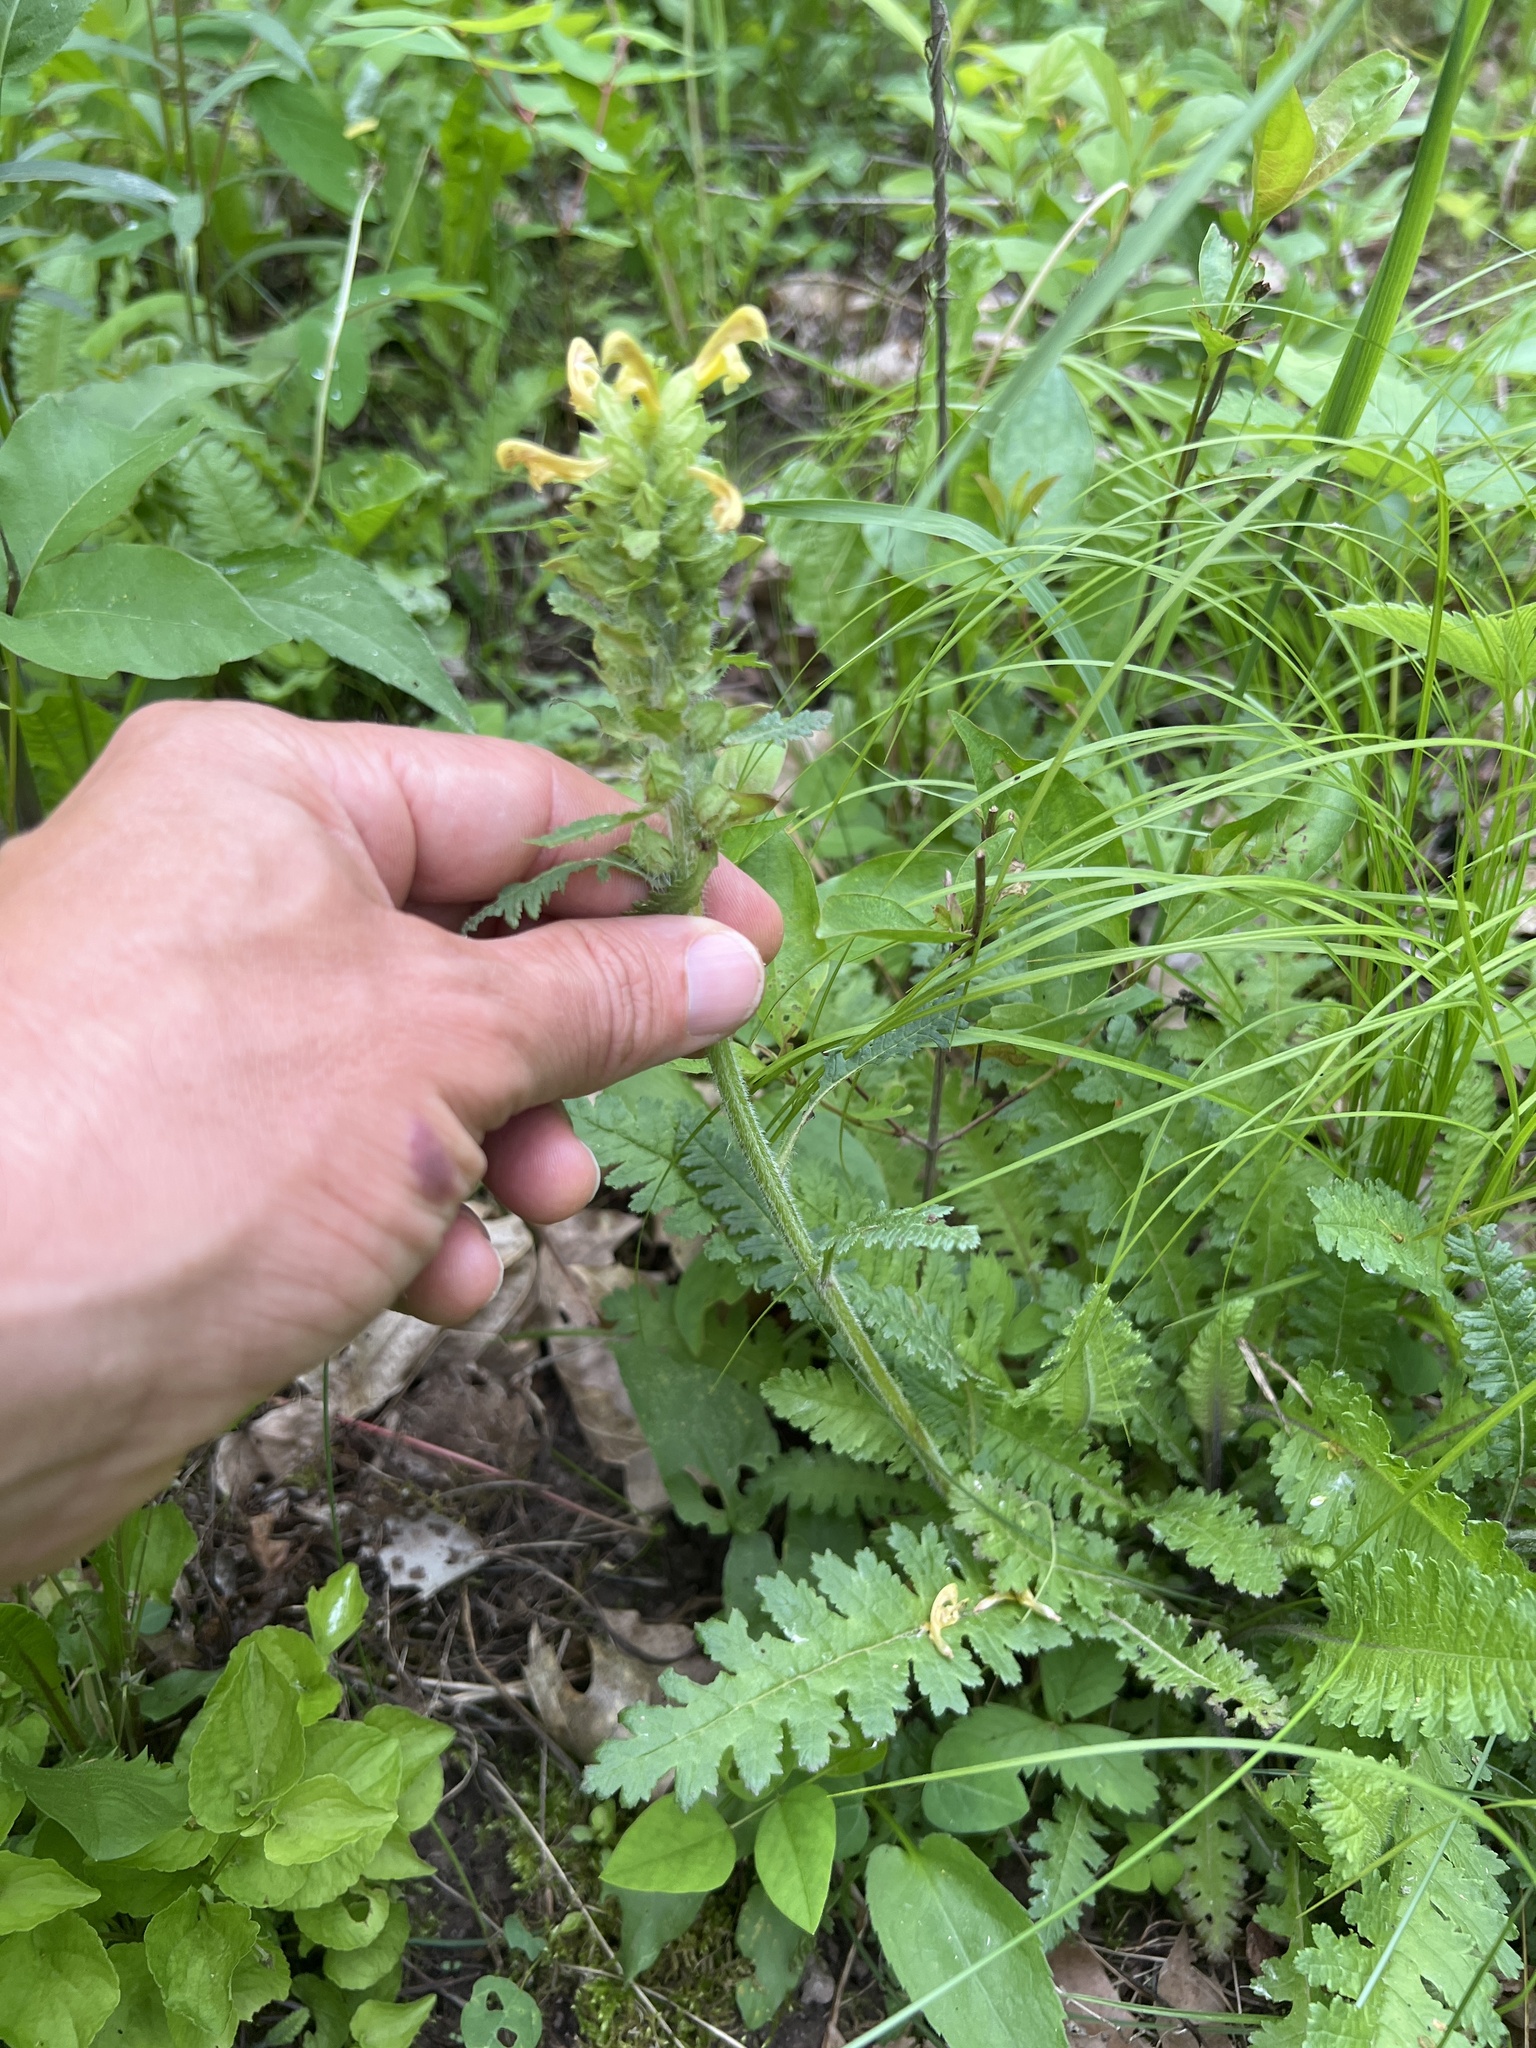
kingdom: Plantae
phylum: Tracheophyta
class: Magnoliopsida
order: Lamiales
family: Orobanchaceae
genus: Pedicularis
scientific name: Pedicularis canadensis
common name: Early lousewort
